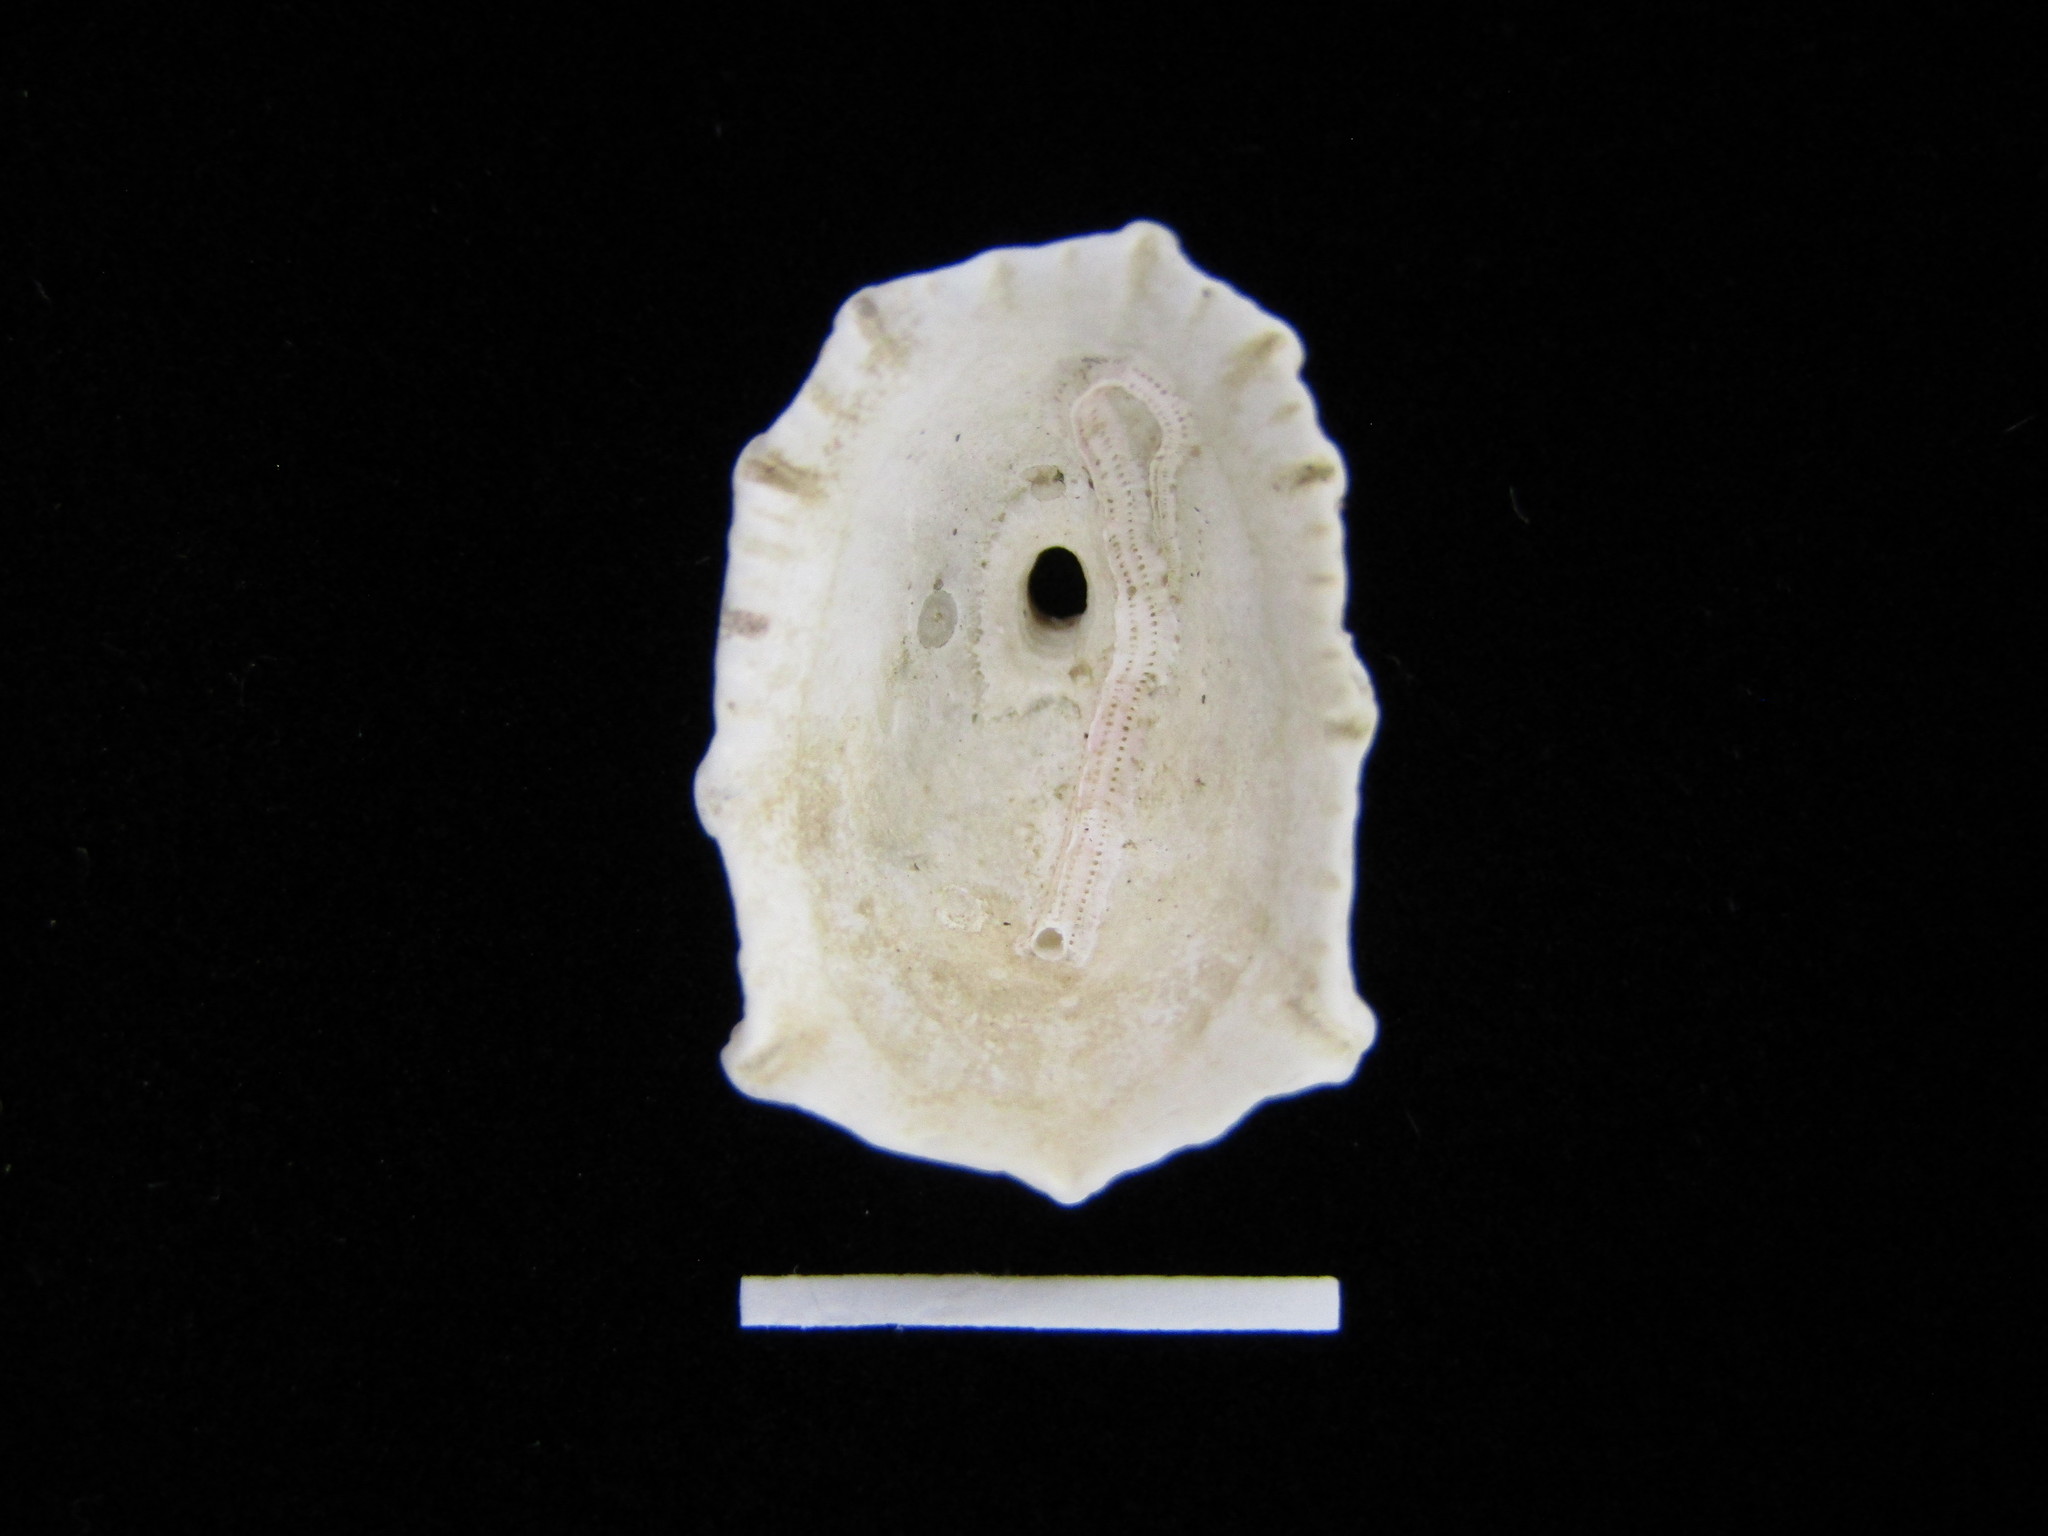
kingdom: Animalia
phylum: Mollusca
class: Gastropoda
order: Lepetellida
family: Fissurellidae
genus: Diodora
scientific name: Diodora sieboldii
